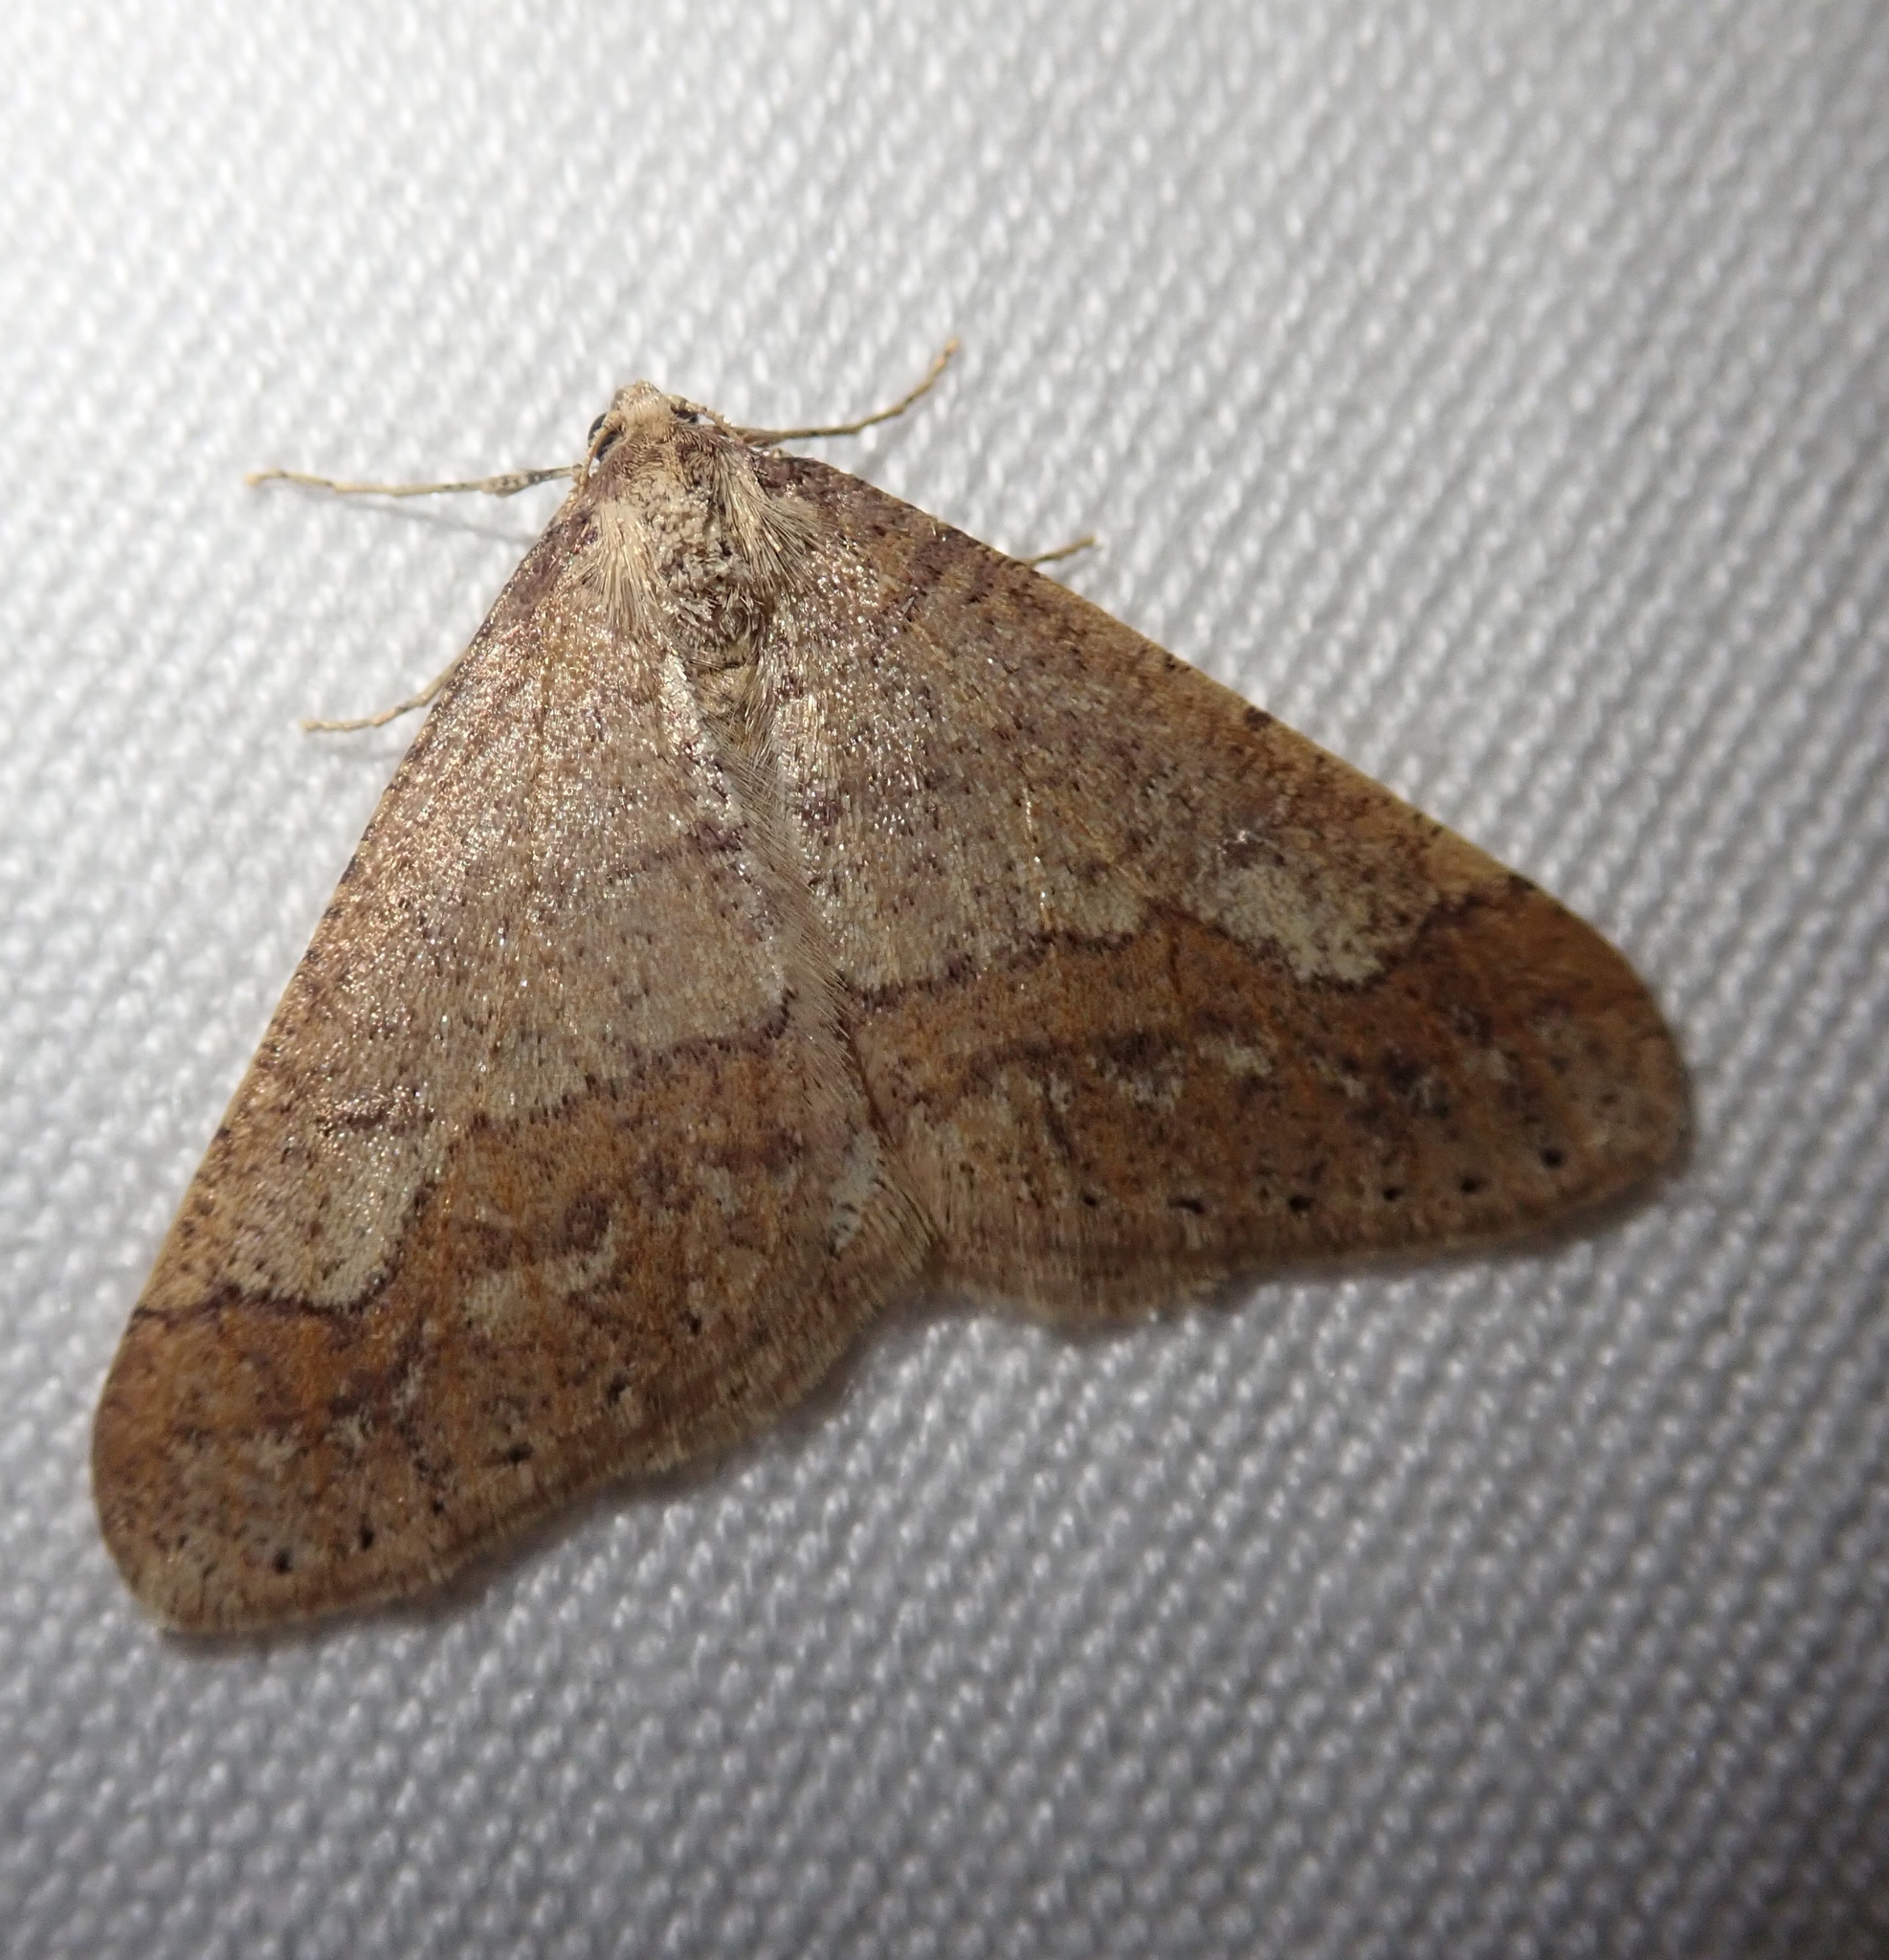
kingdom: Animalia
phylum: Arthropoda
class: Insecta
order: Lepidoptera
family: Geometridae
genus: Agriopis
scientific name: Agriopis marginaria
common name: Dotted border
